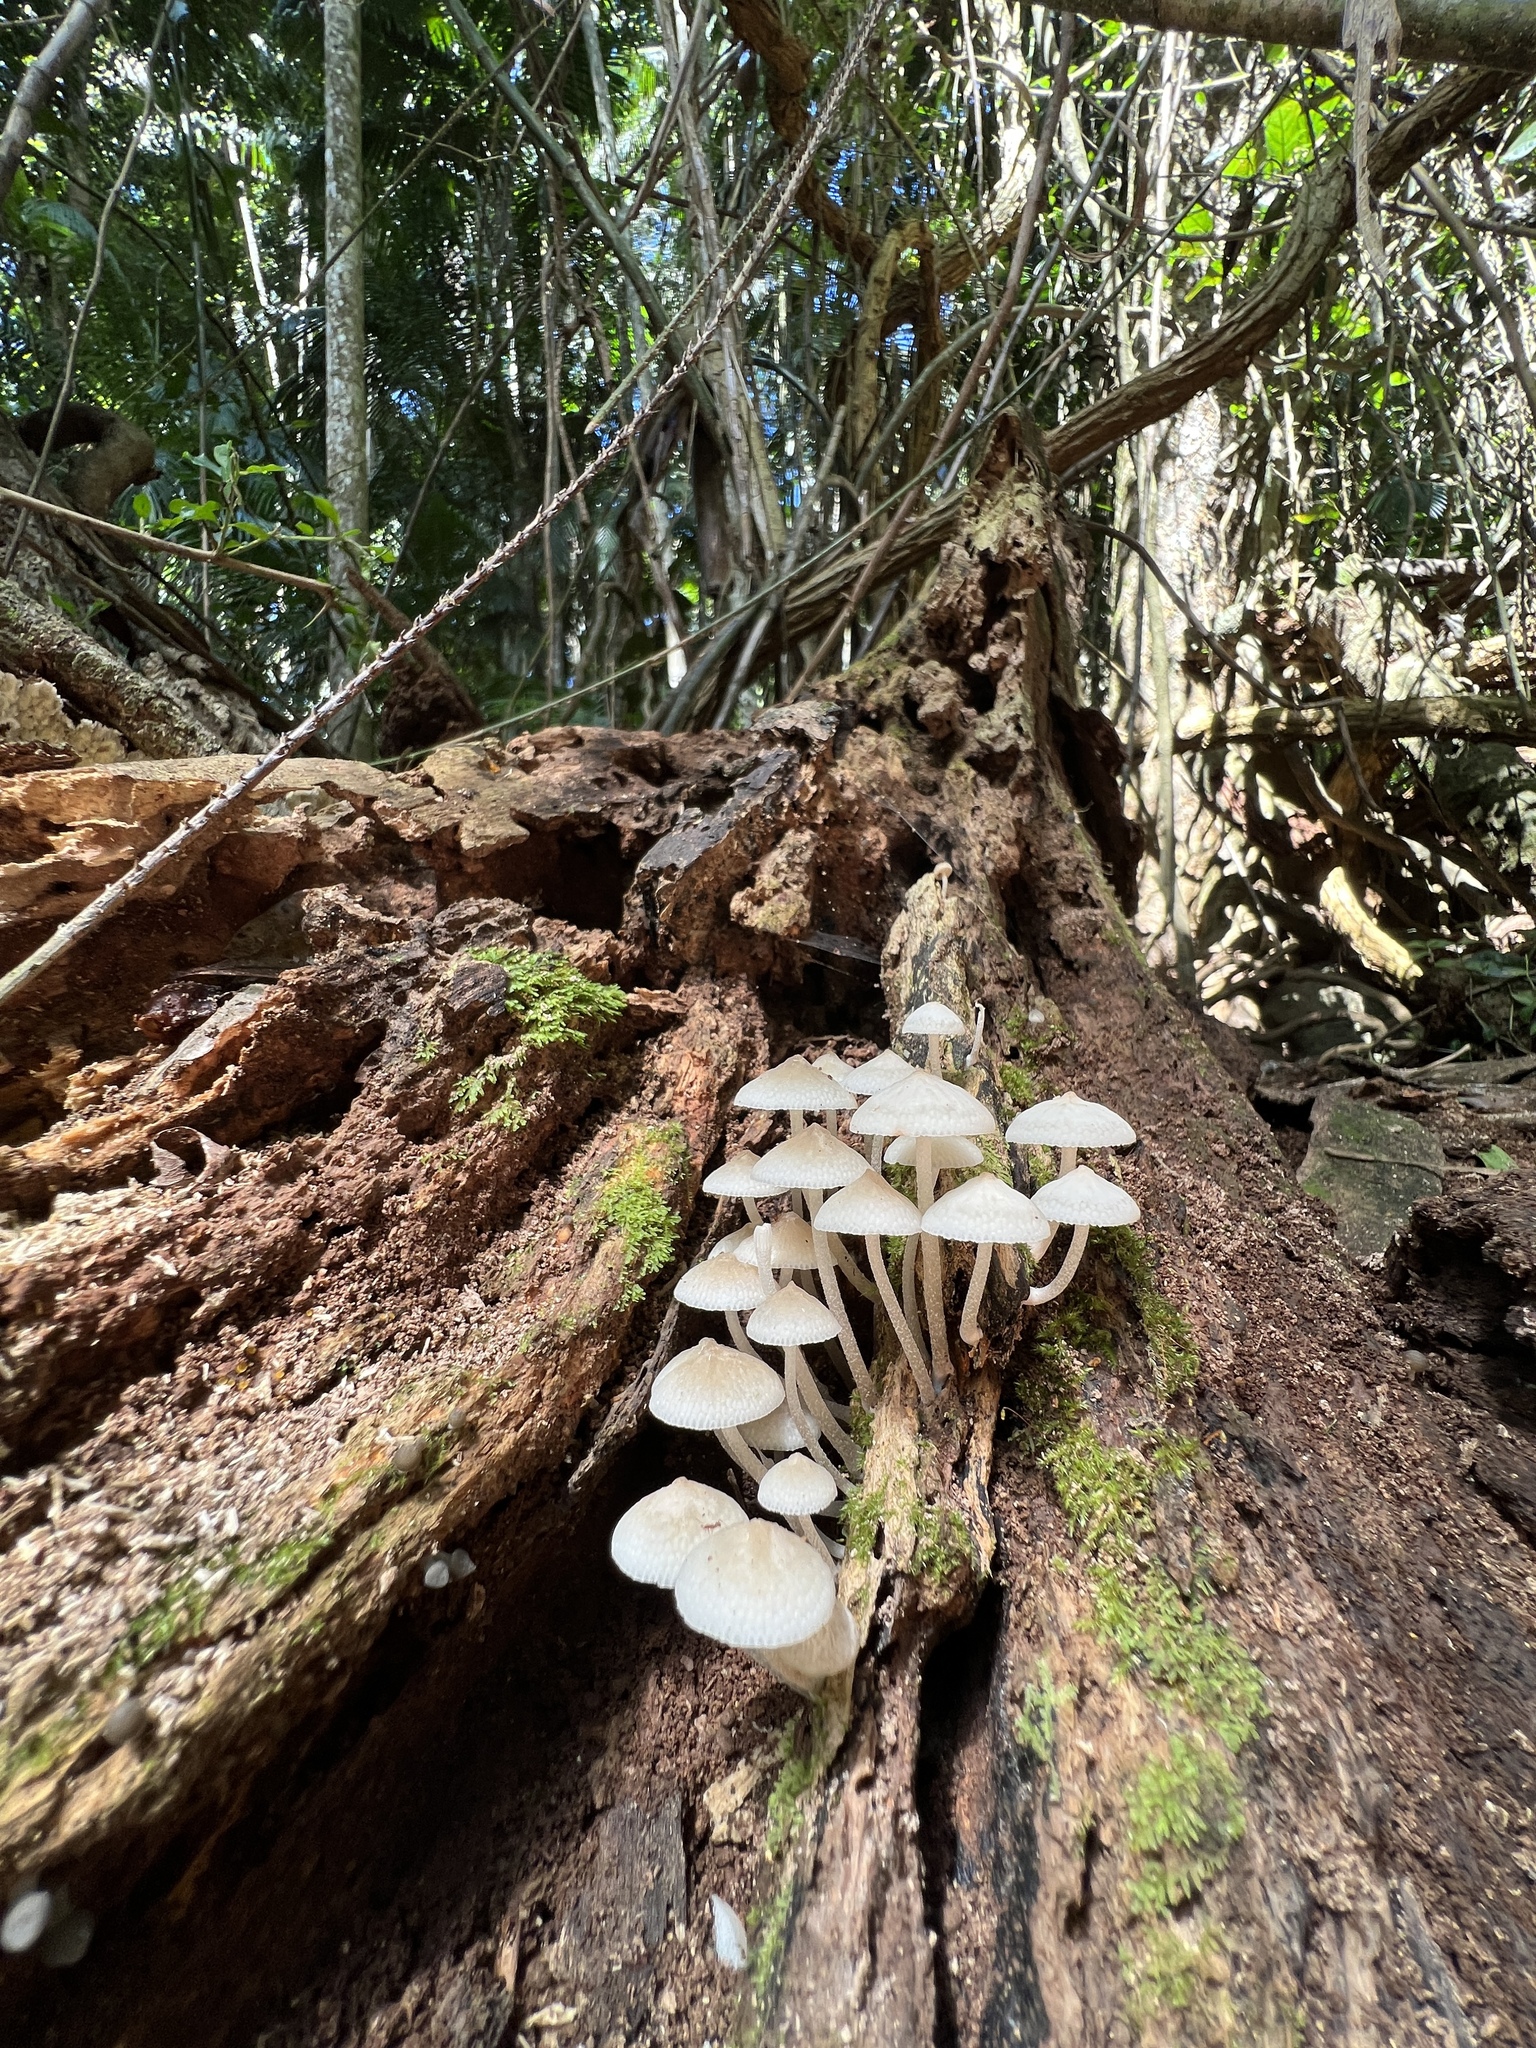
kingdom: Fungi
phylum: Basidiomycota
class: Agaricomycetes
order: Agaricales
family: Mycenaceae
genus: Filoboletus
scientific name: Filoboletus manipularis
